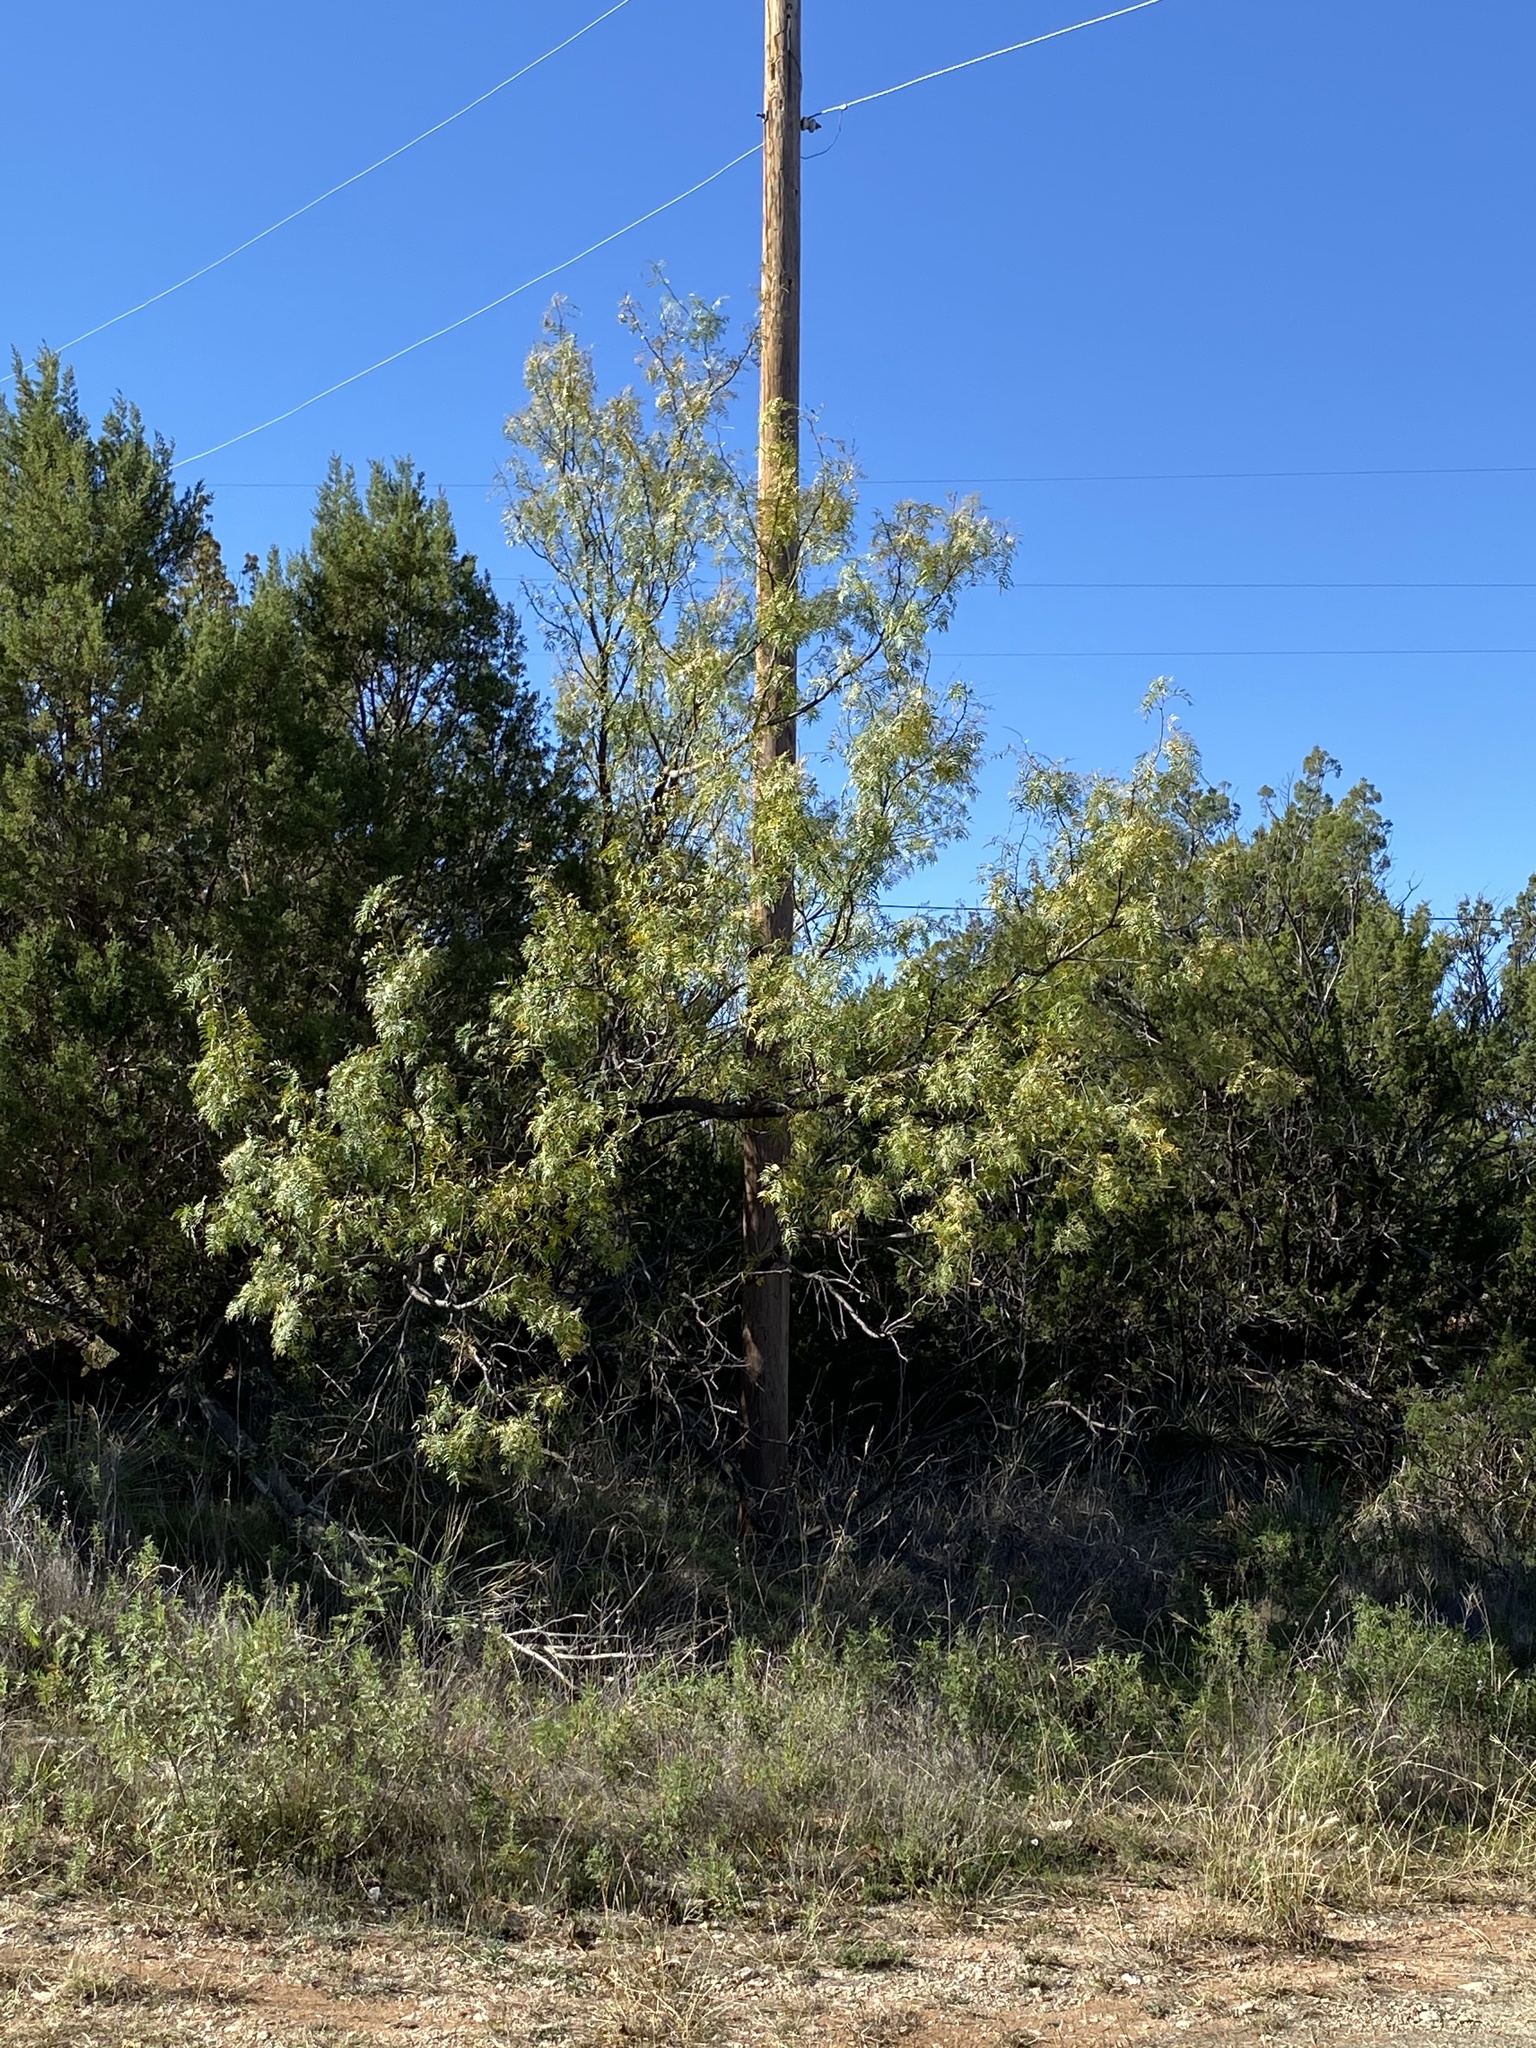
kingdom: Plantae
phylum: Tracheophyta
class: Magnoliopsida
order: Fabales
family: Fabaceae
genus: Prosopis
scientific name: Prosopis glandulosa
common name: Honey mesquite
